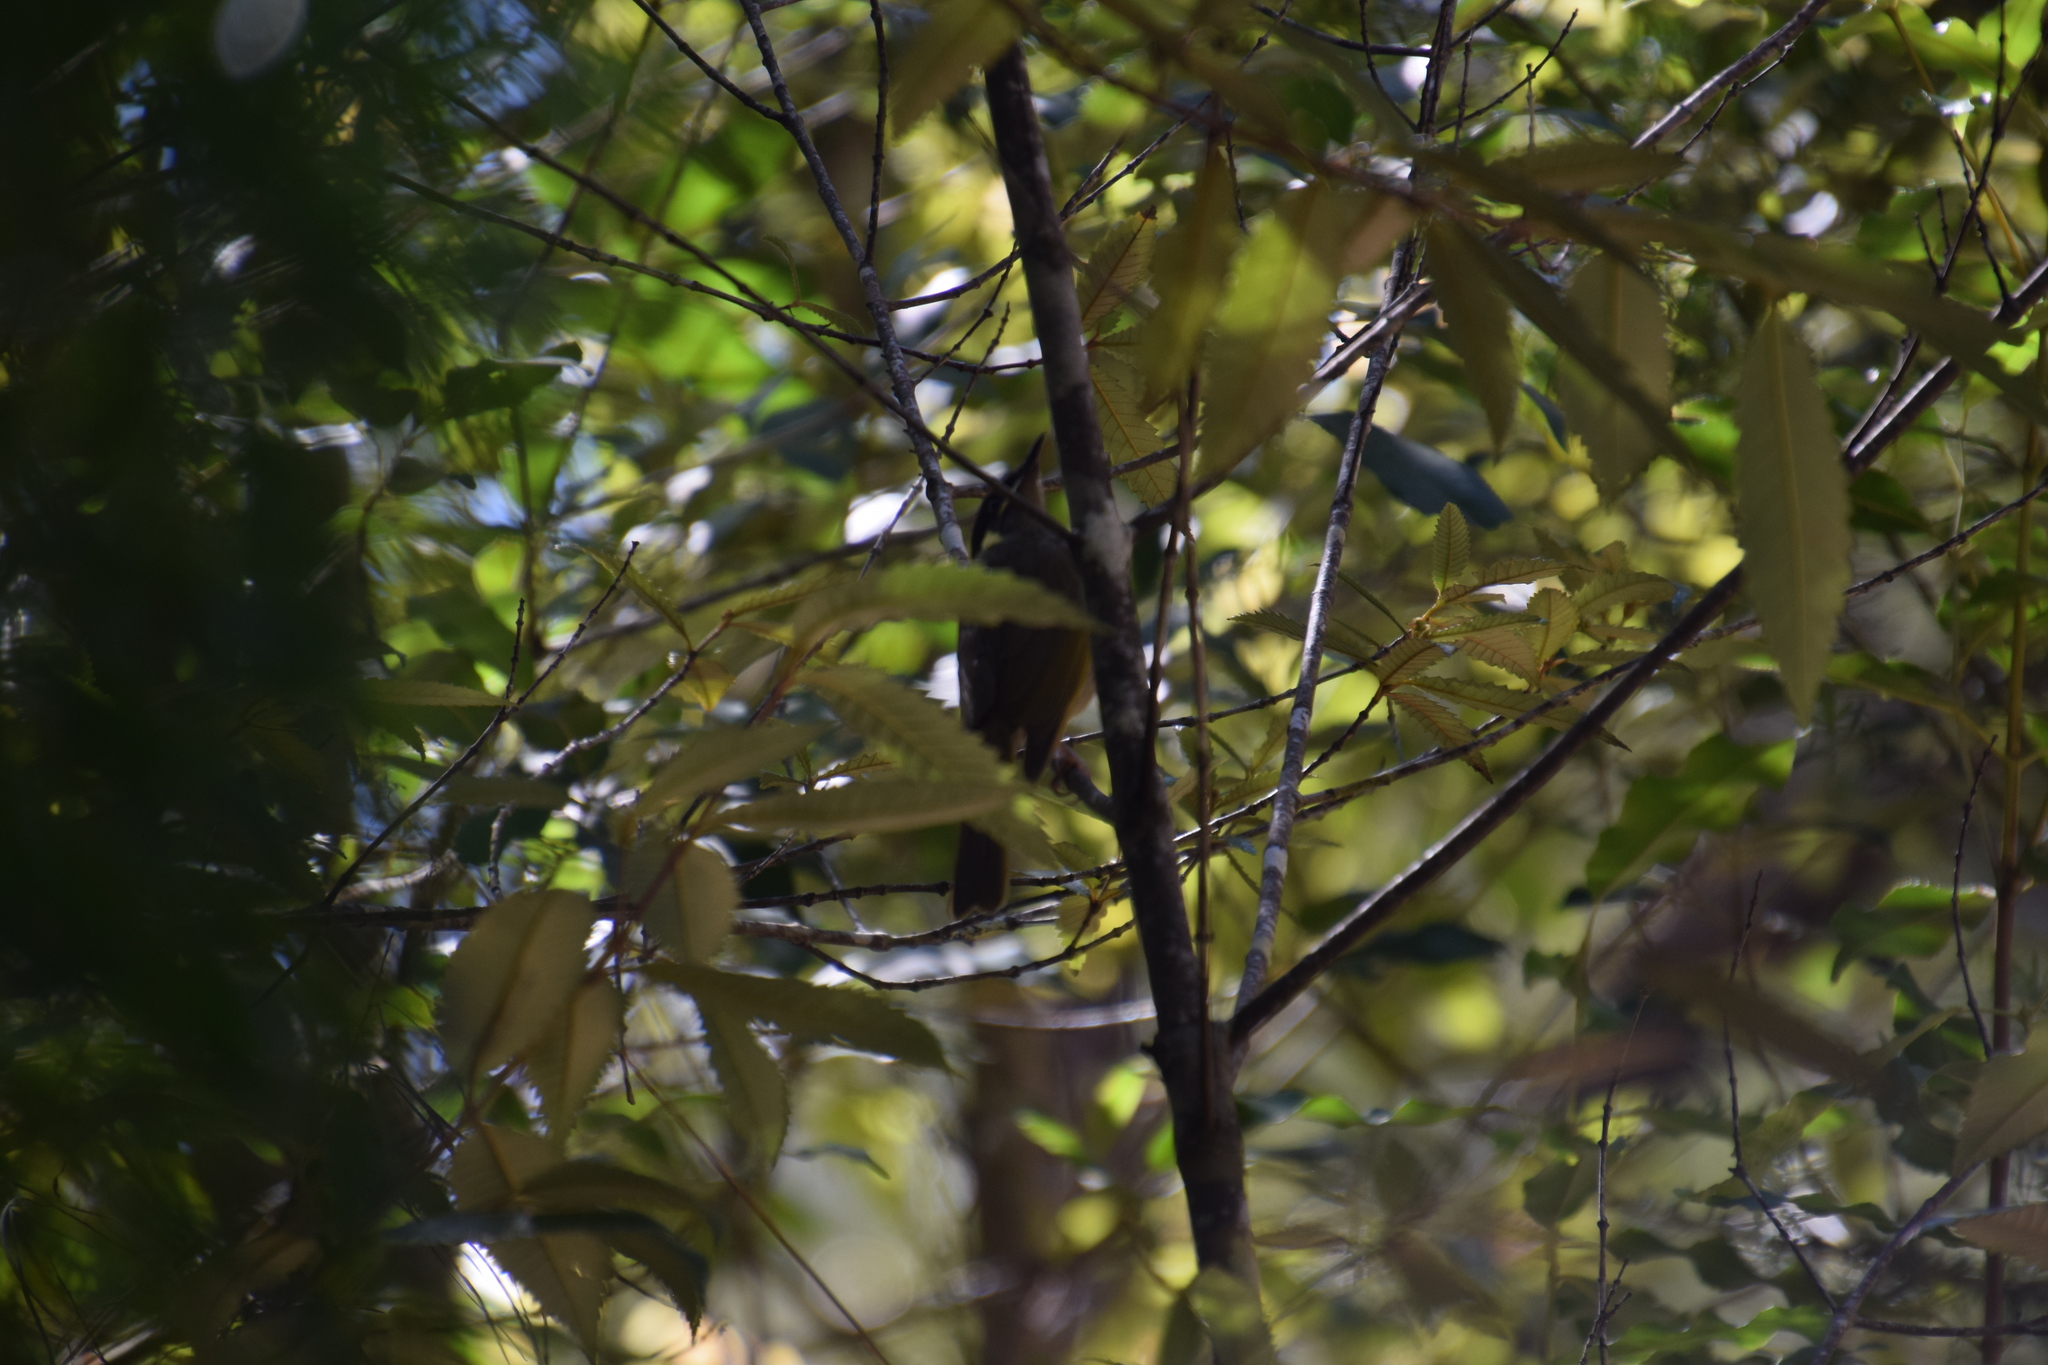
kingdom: Animalia
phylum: Chordata
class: Aves
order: Passeriformes
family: Meliphagidae
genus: Meliphaga
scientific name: Meliphaga lewinii
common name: Lewin's honeyeater
